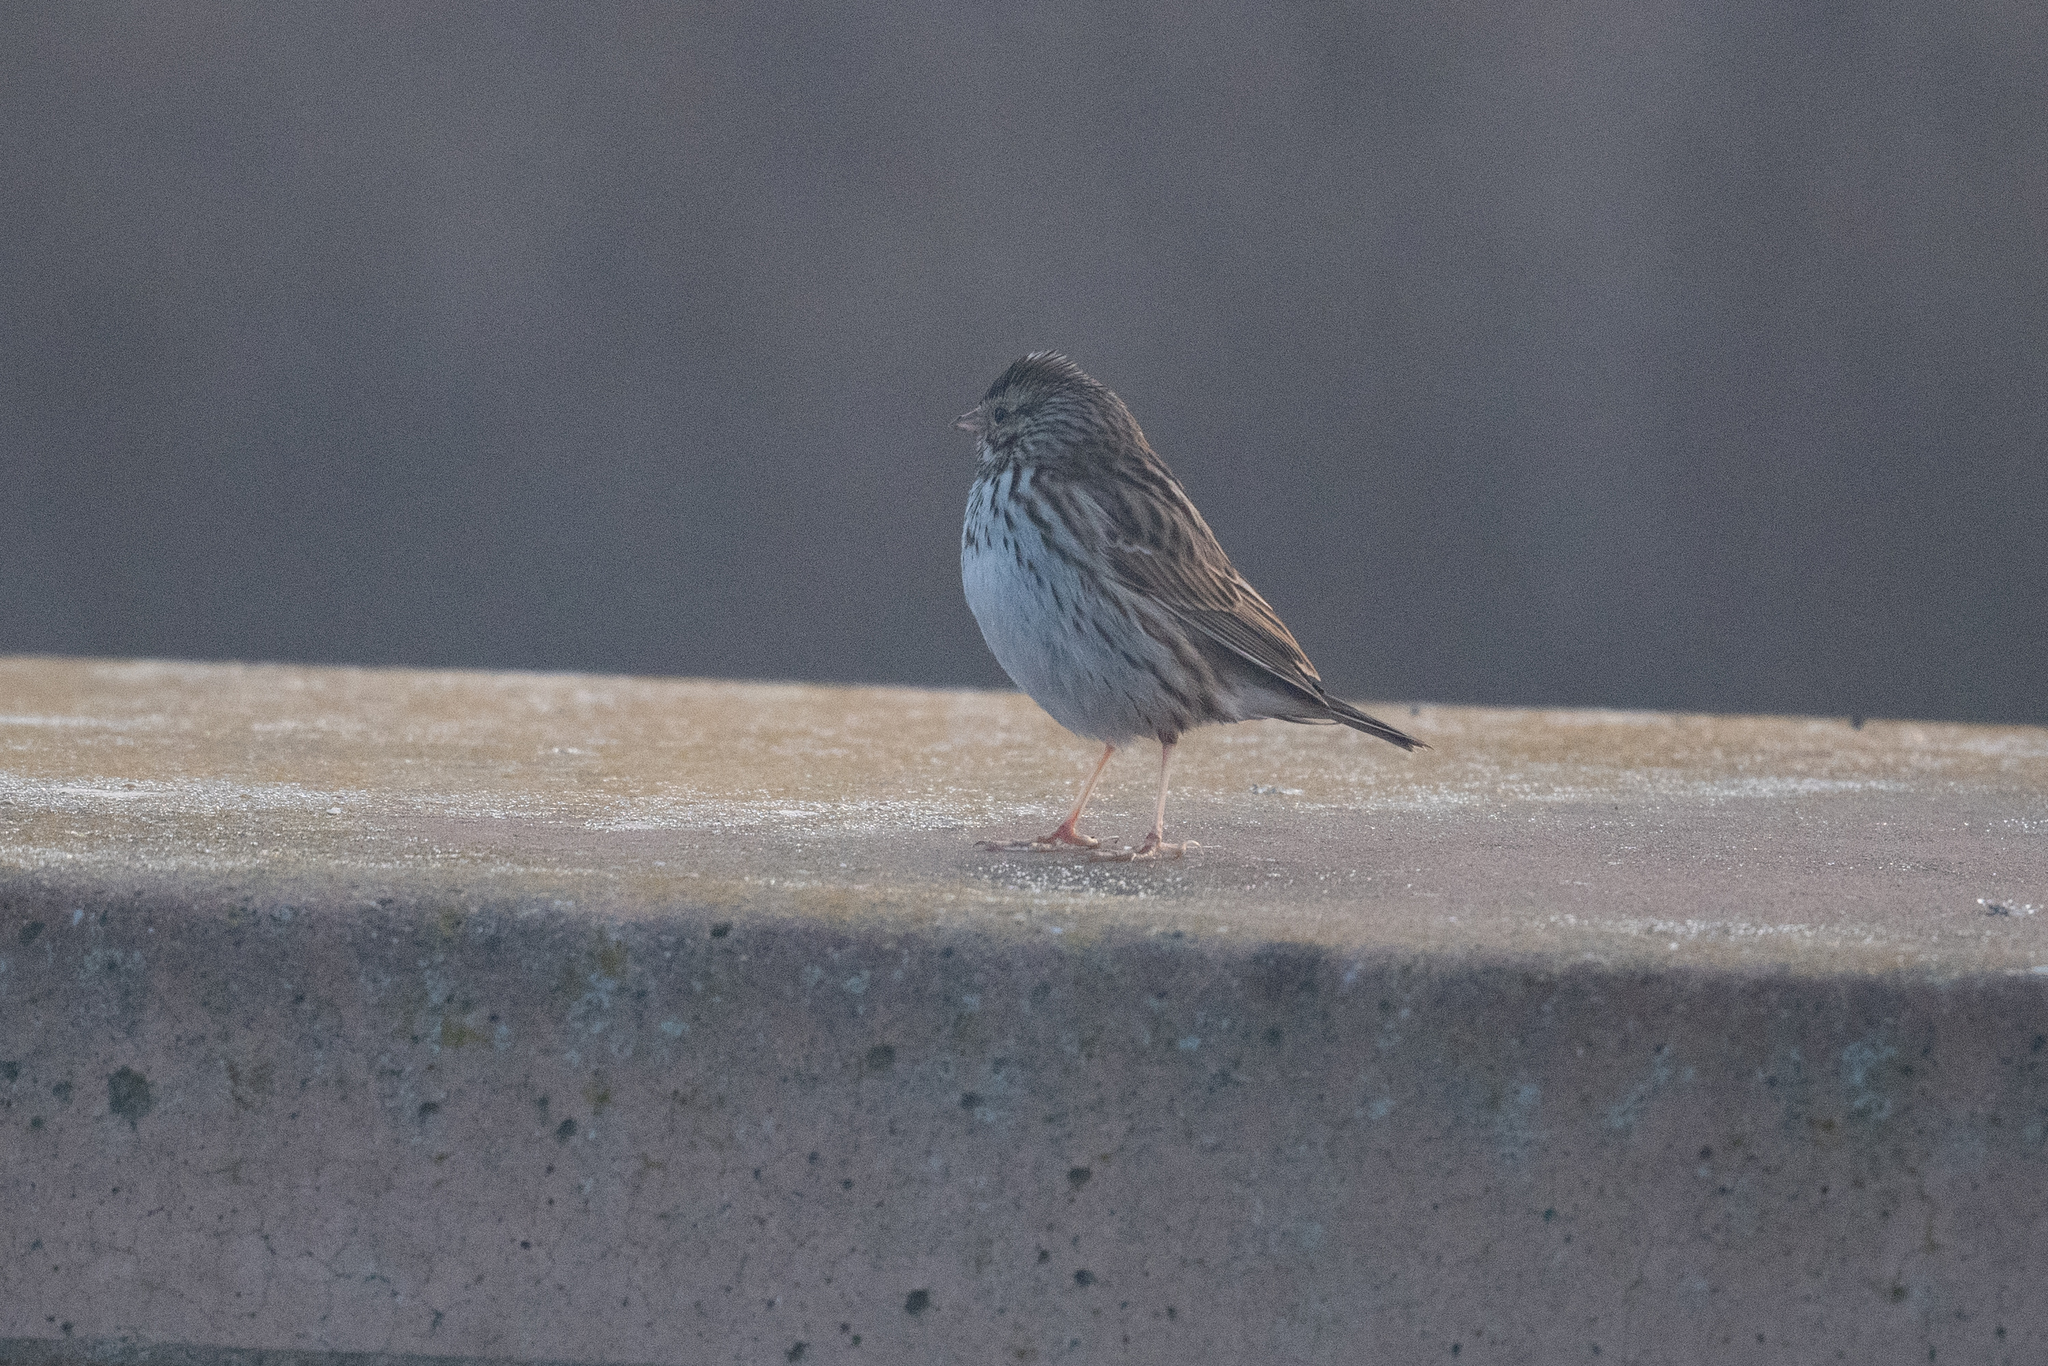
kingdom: Animalia
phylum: Chordata
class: Aves
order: Passeriformes
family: Passerellidae
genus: Passerculus
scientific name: Passerculus sandwichensis
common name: Savannah sparrow
